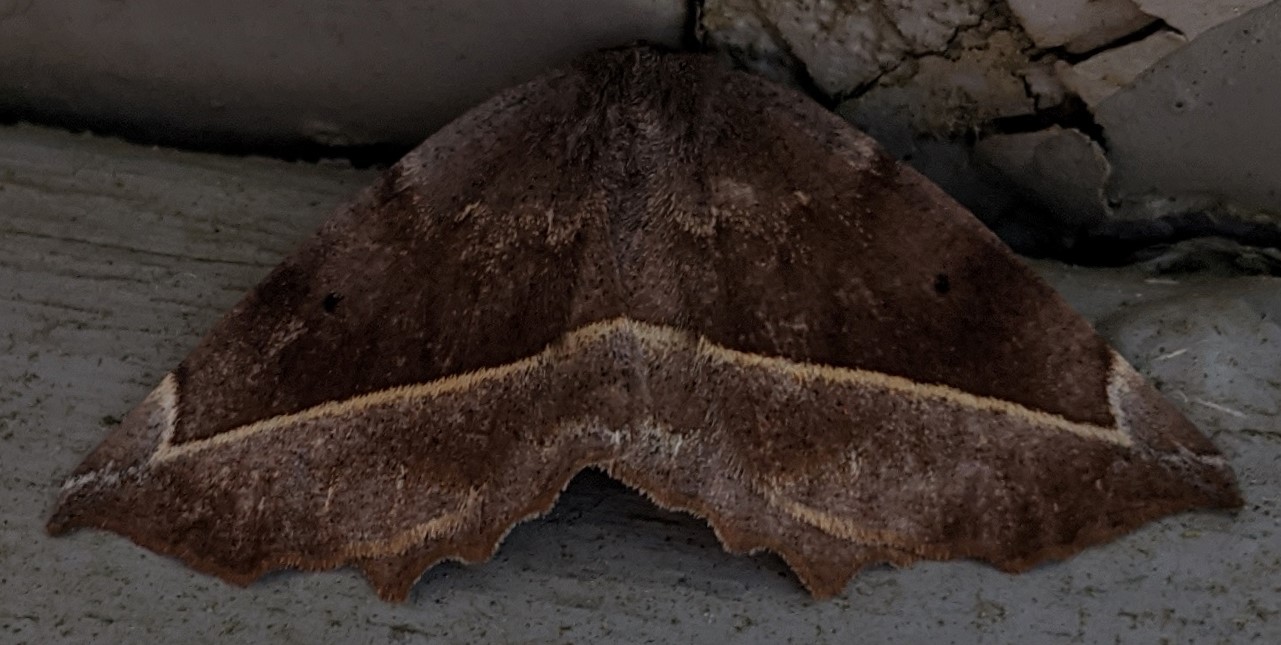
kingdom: Animalia
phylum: Arthropoda
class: Insecta
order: Lepidoptera
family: Geometridae
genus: Eutrapela
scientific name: Eutrapela clemataria
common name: Curved-toothed geometer
